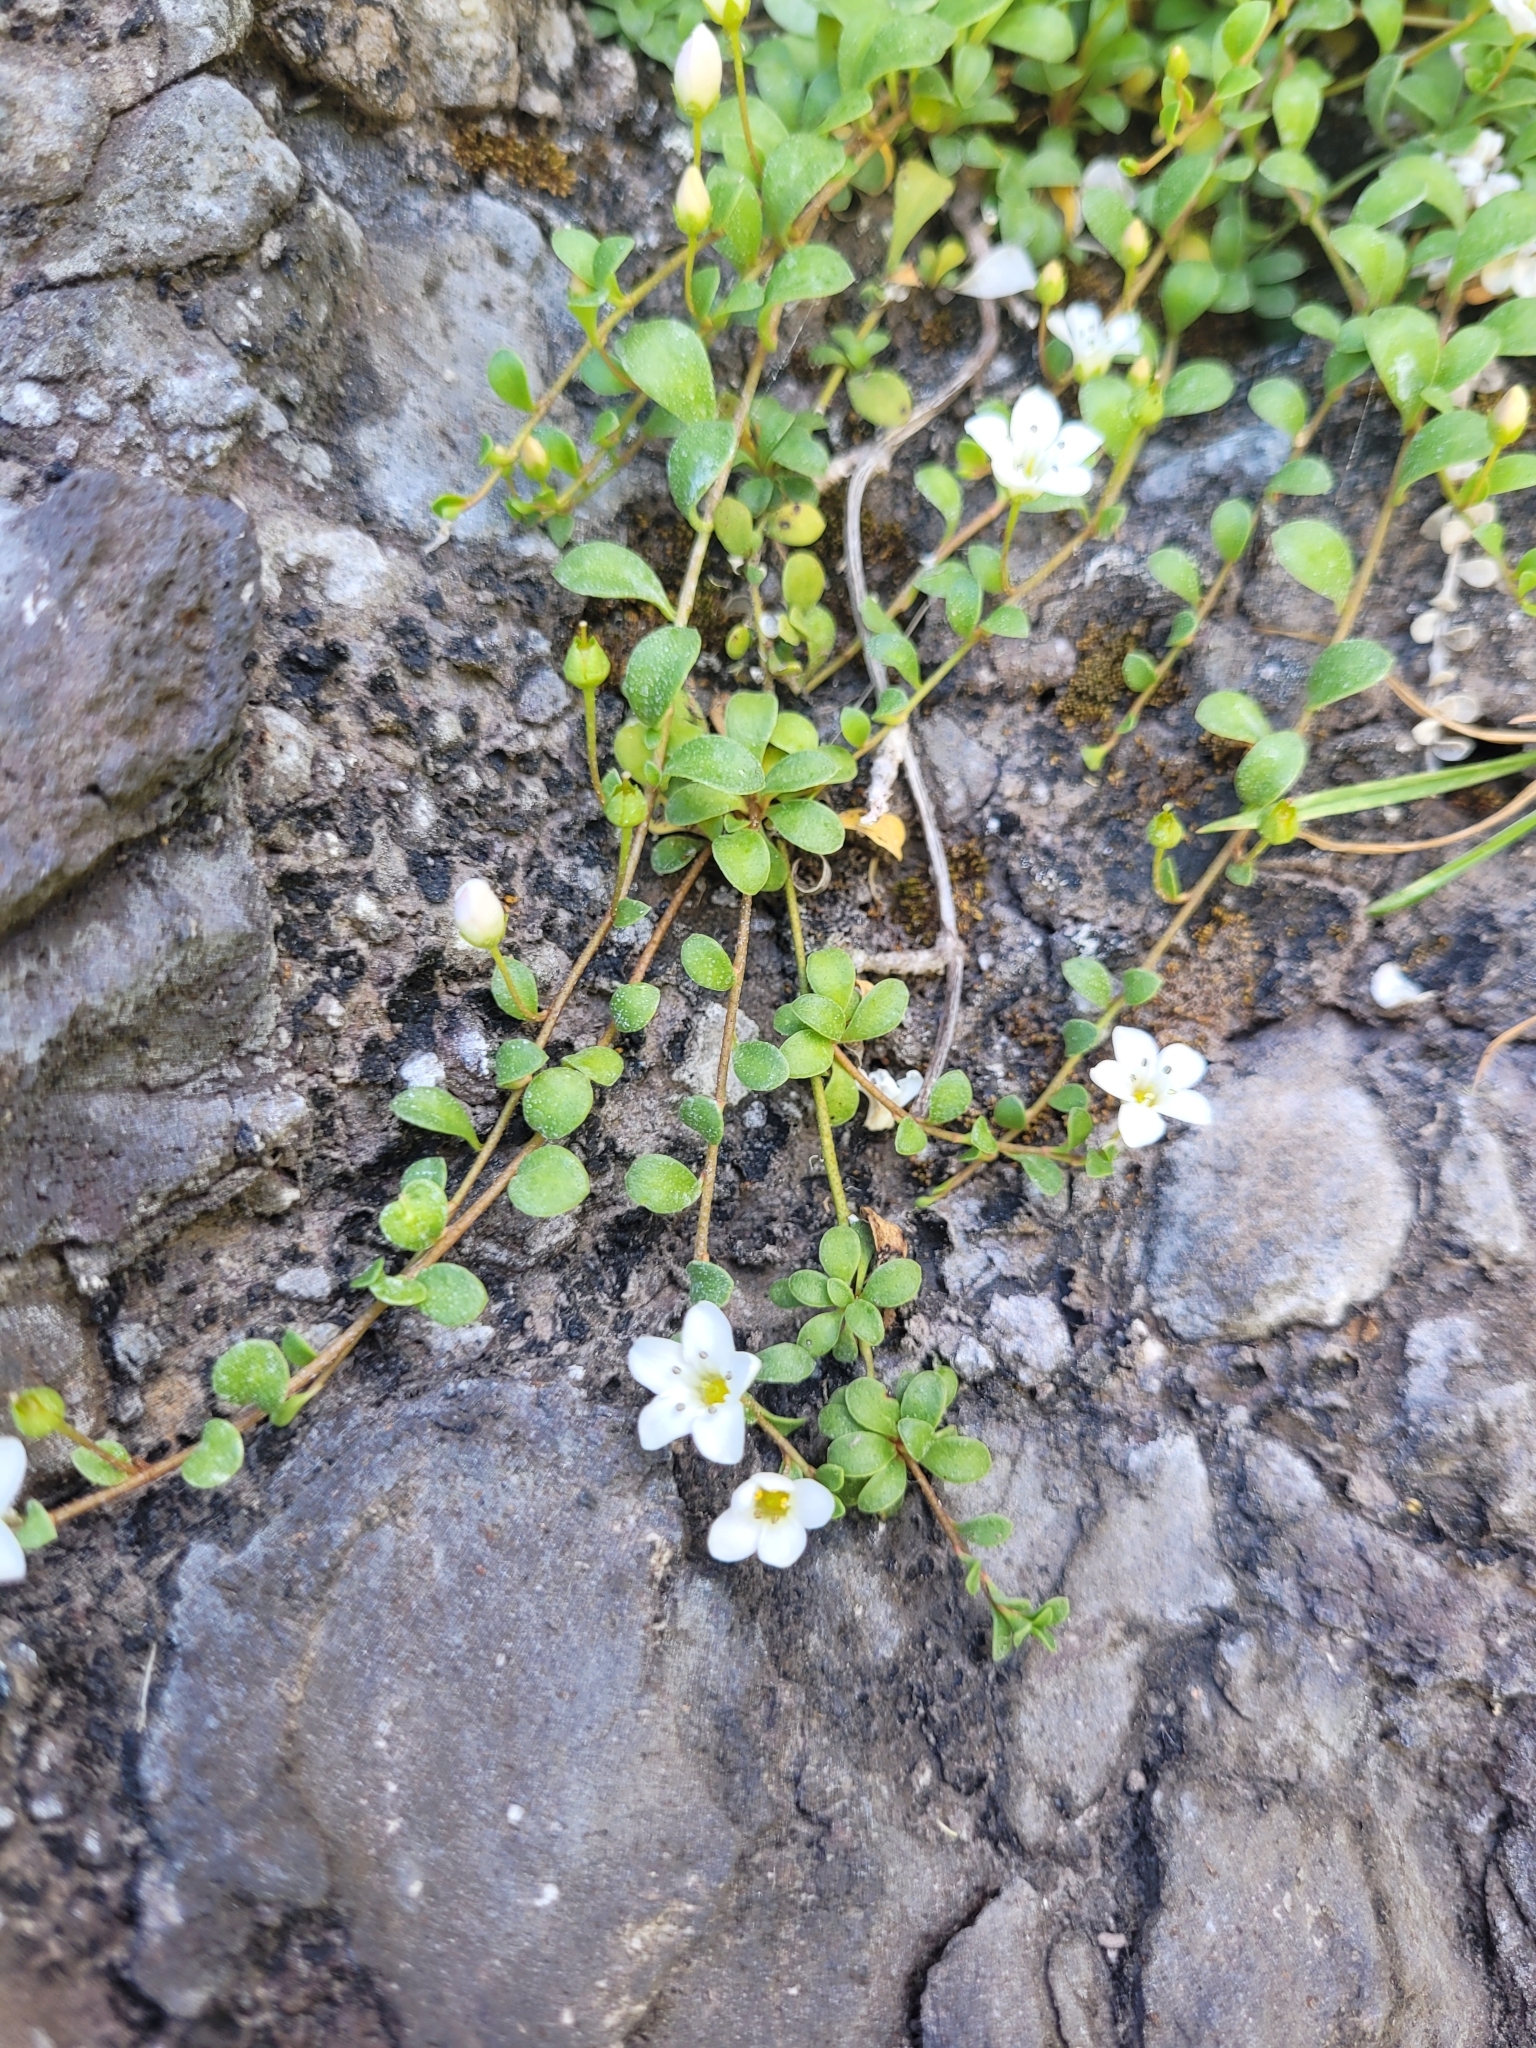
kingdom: Plantae
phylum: Tracheophyta
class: Magnoliopsida
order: Ericales
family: Primulaceae
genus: Samolus
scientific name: Samolus repens
